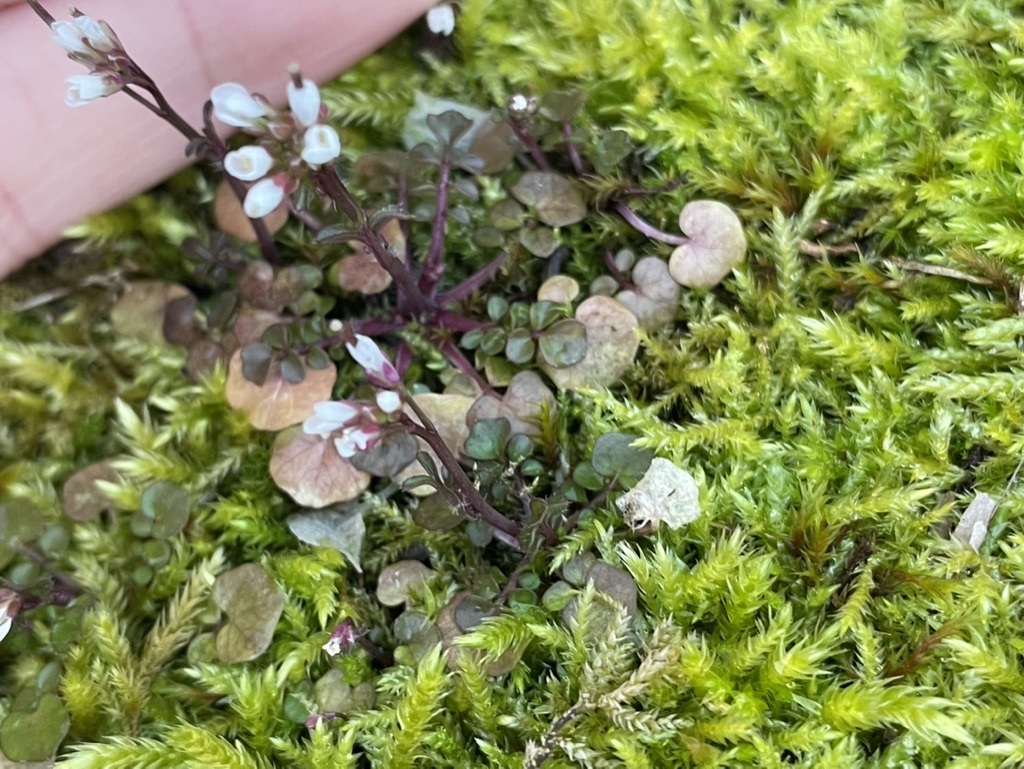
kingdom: Plantae
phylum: Tracheophyta
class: Magnoliopsida
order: Brassicales
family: Brassicaceae
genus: Cardamine
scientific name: Cardamine hirsuta
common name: Hairy bittercress
